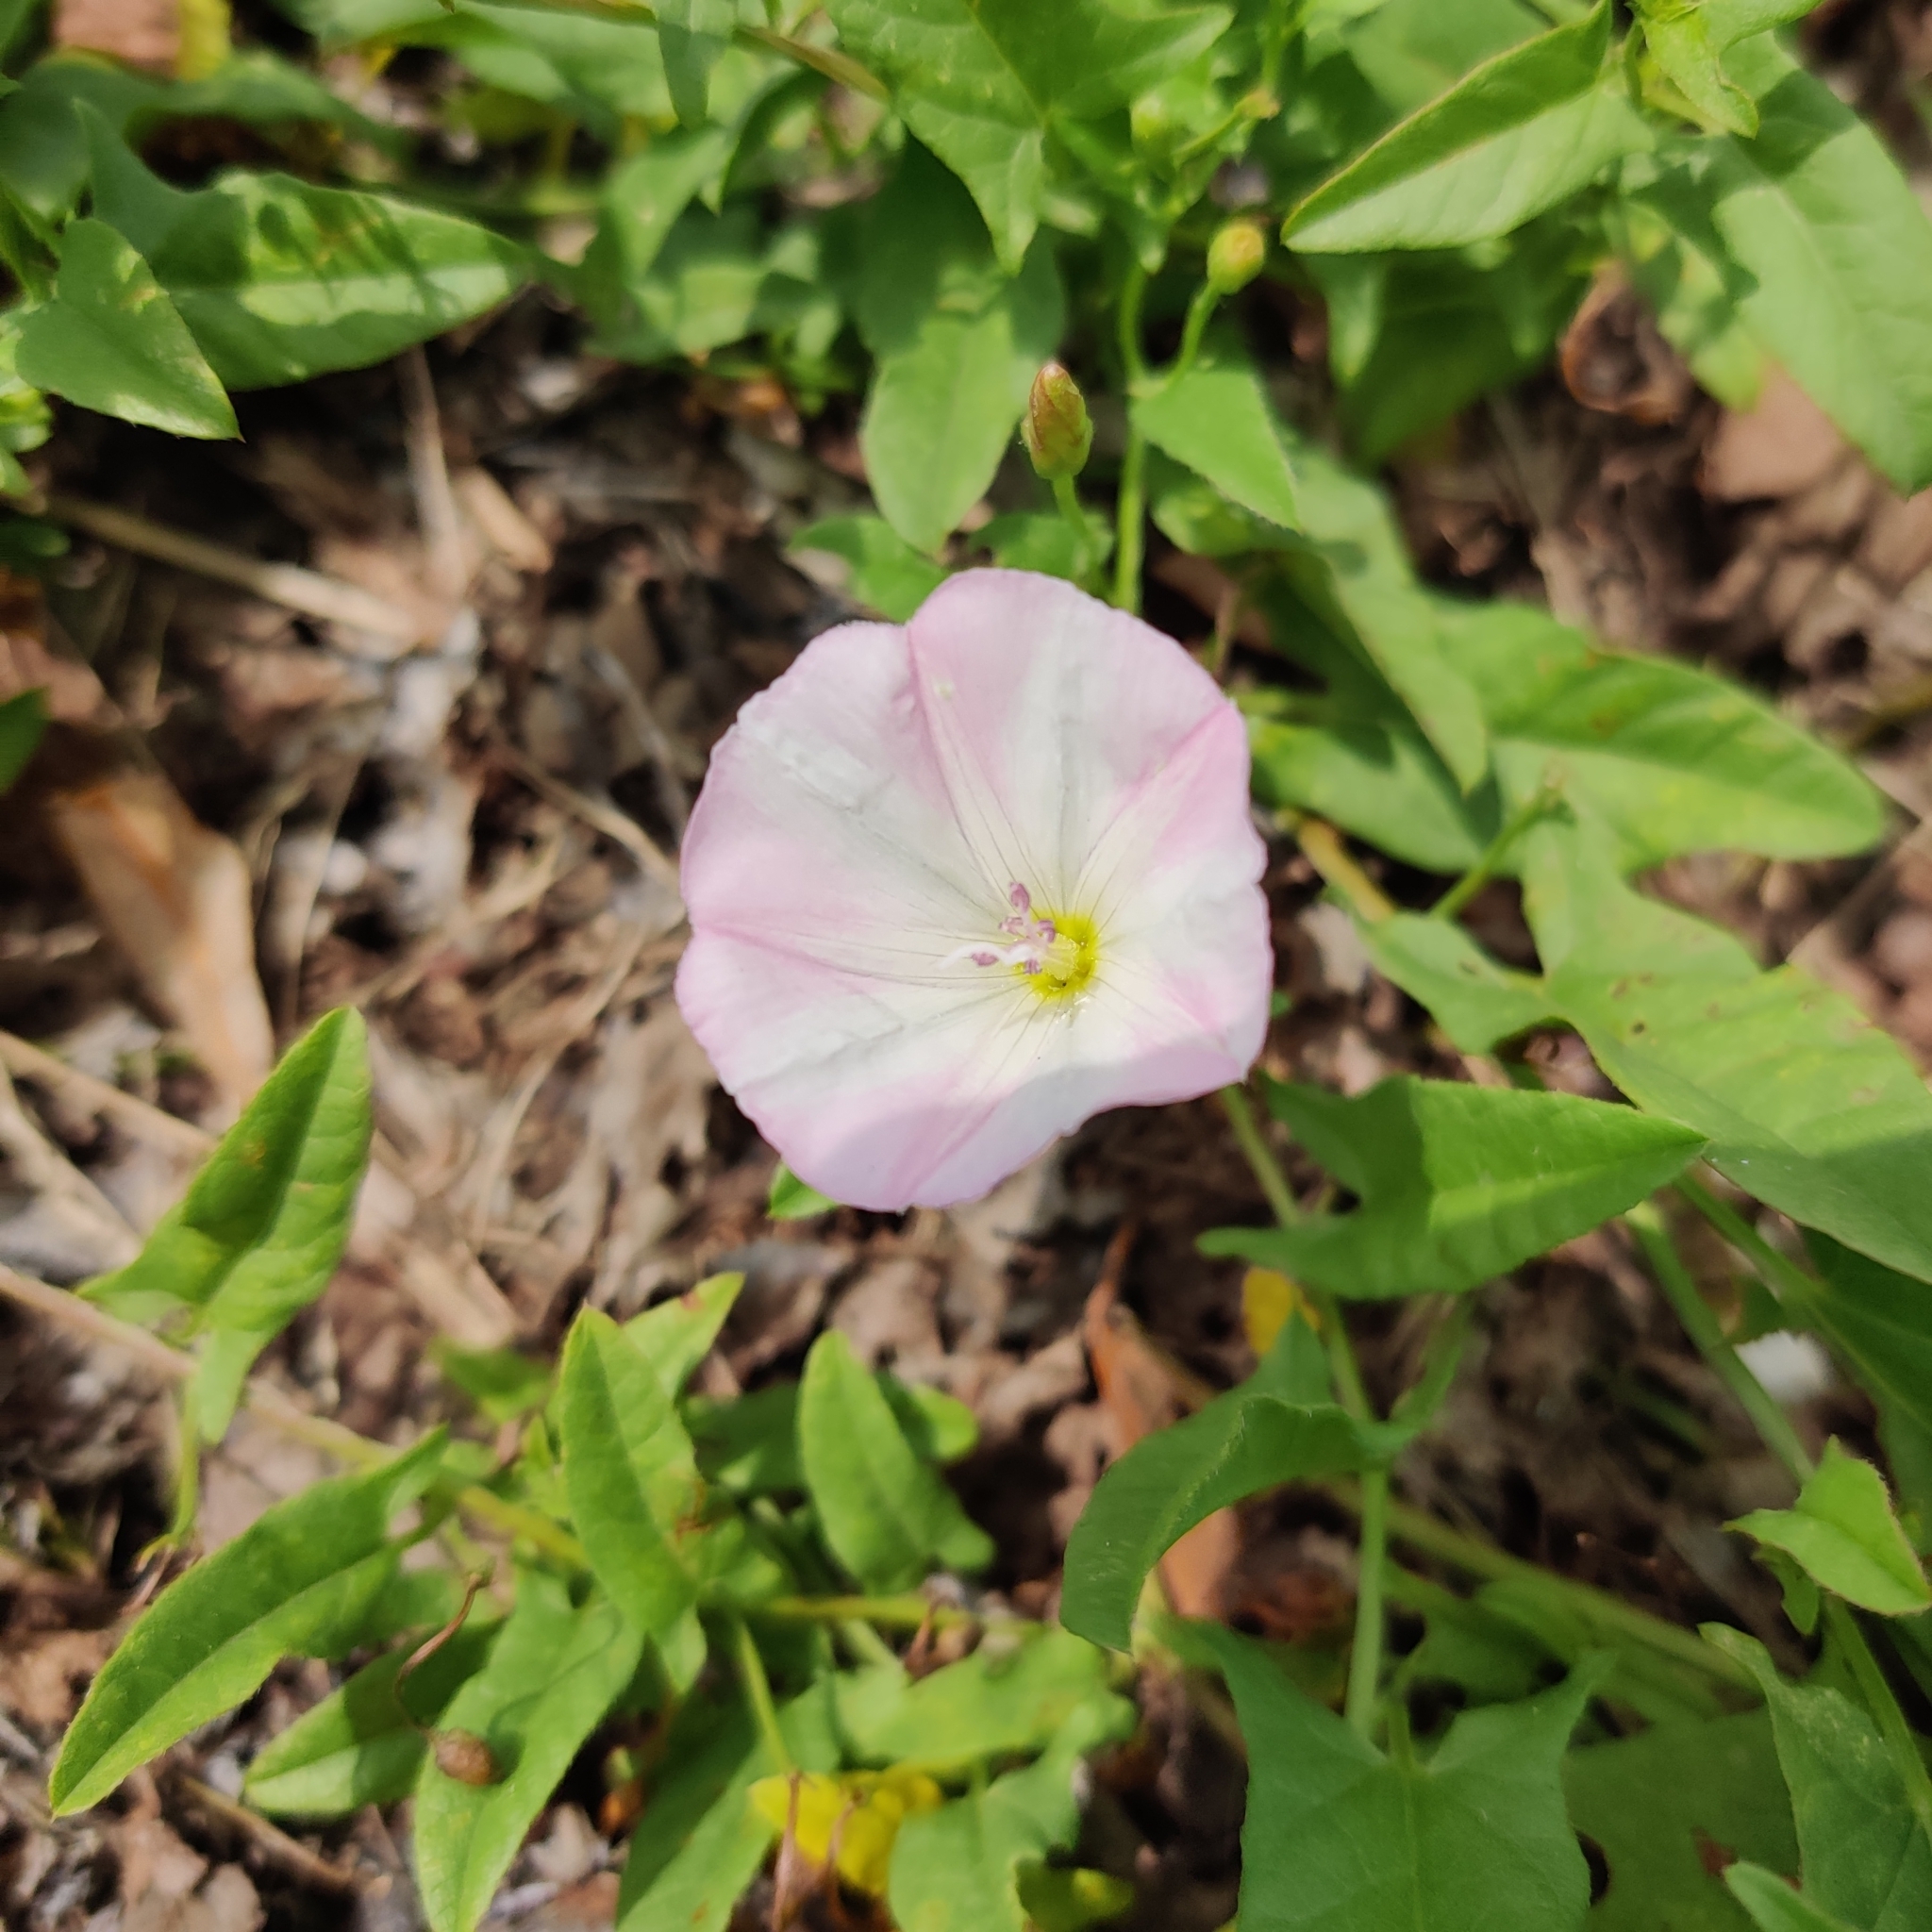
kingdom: Plantae
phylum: Tracheophyta
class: Magnoliopsida
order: Solanales
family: Convolvulaceae
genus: Convolvulus
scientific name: Convolvulus arvensis
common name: Field bindweed
